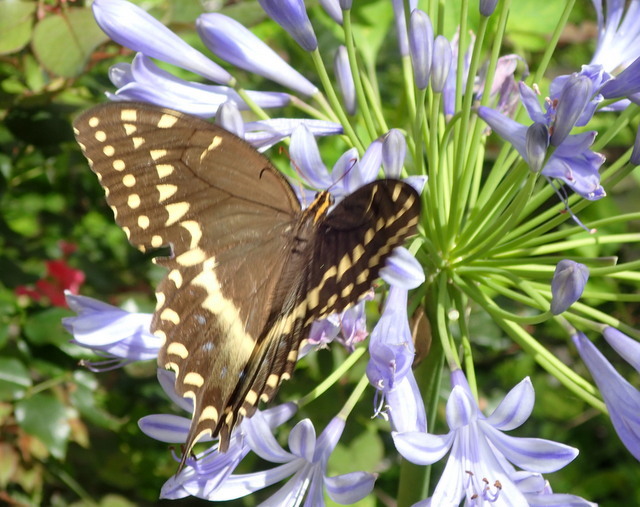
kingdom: Animalia
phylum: Arthropoda
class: Insecta
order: Lepidoptera
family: Papilionidae
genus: Papilio
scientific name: Papilio palamedes
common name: Palamedes swallowtail
